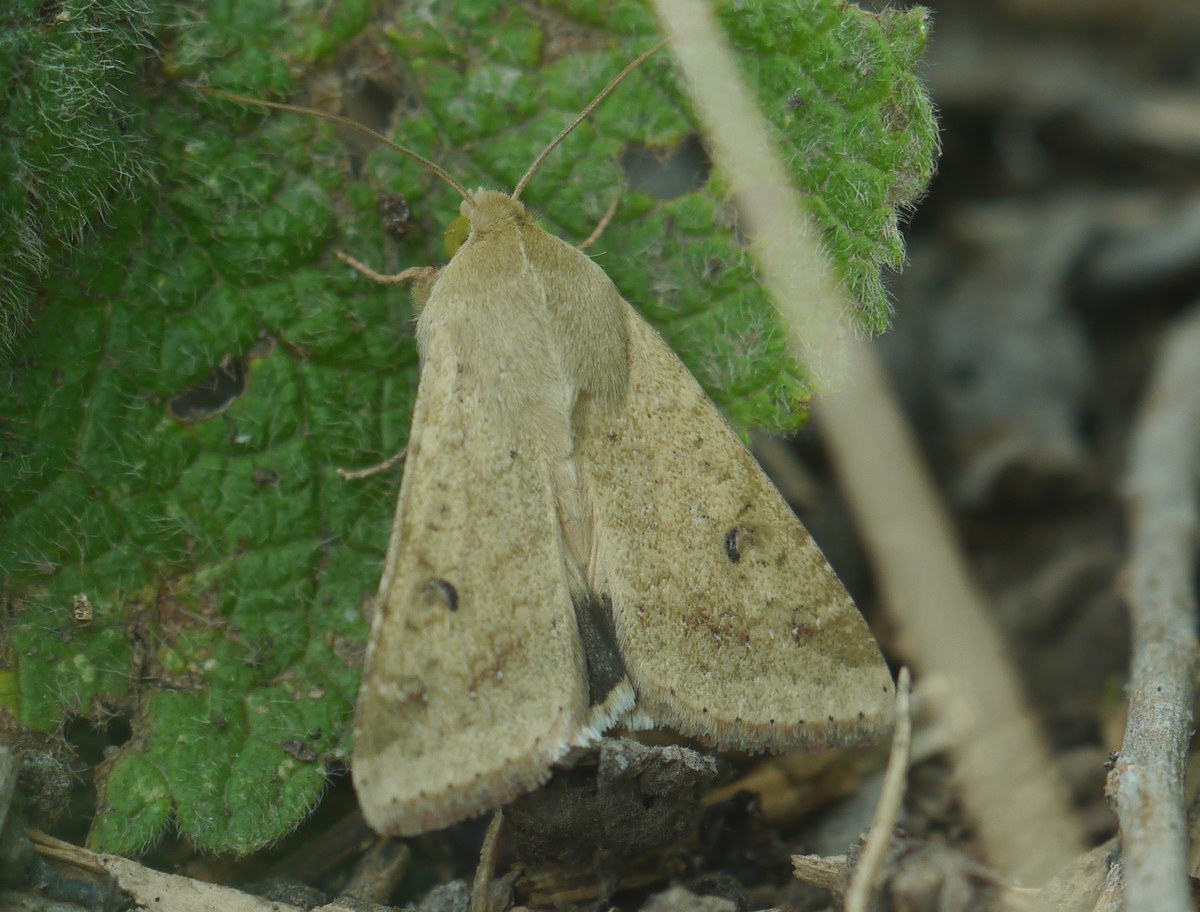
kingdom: Animalia
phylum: Arthropoda
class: Insecta
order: Lepidoptera
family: Noctuidae
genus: Helicoverpa
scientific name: Helicoverpa armigera
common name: Cotton bollworm
